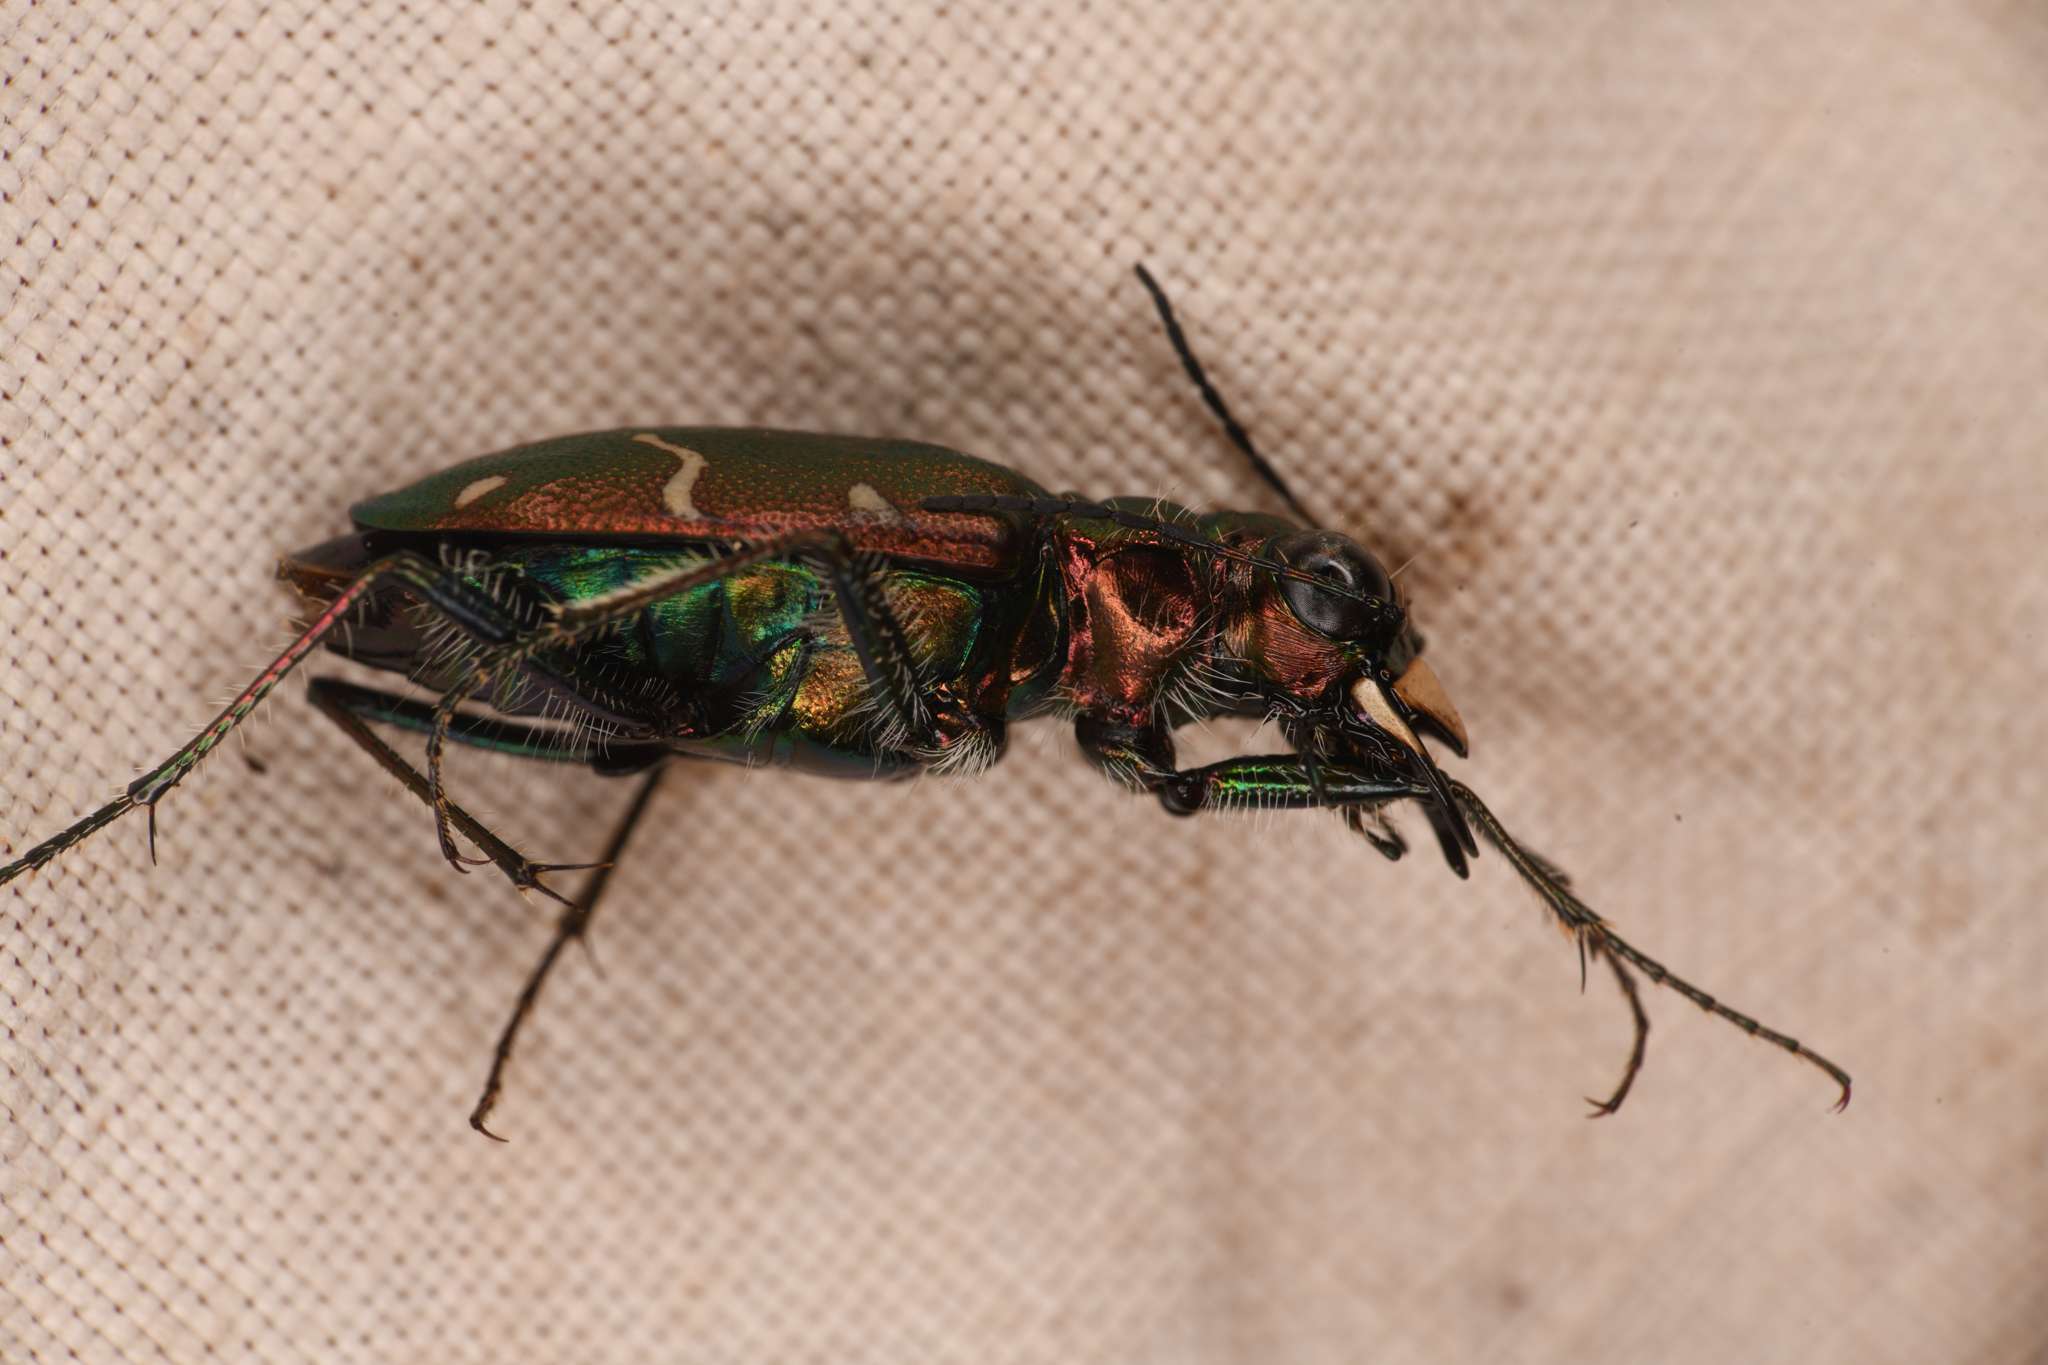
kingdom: Animalia
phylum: Arthropoda
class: Insecta
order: Coleoptera
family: Carabidae
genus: Cicindela
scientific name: Cicindela longilabris
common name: Boreal long-lipped tiger beetle
